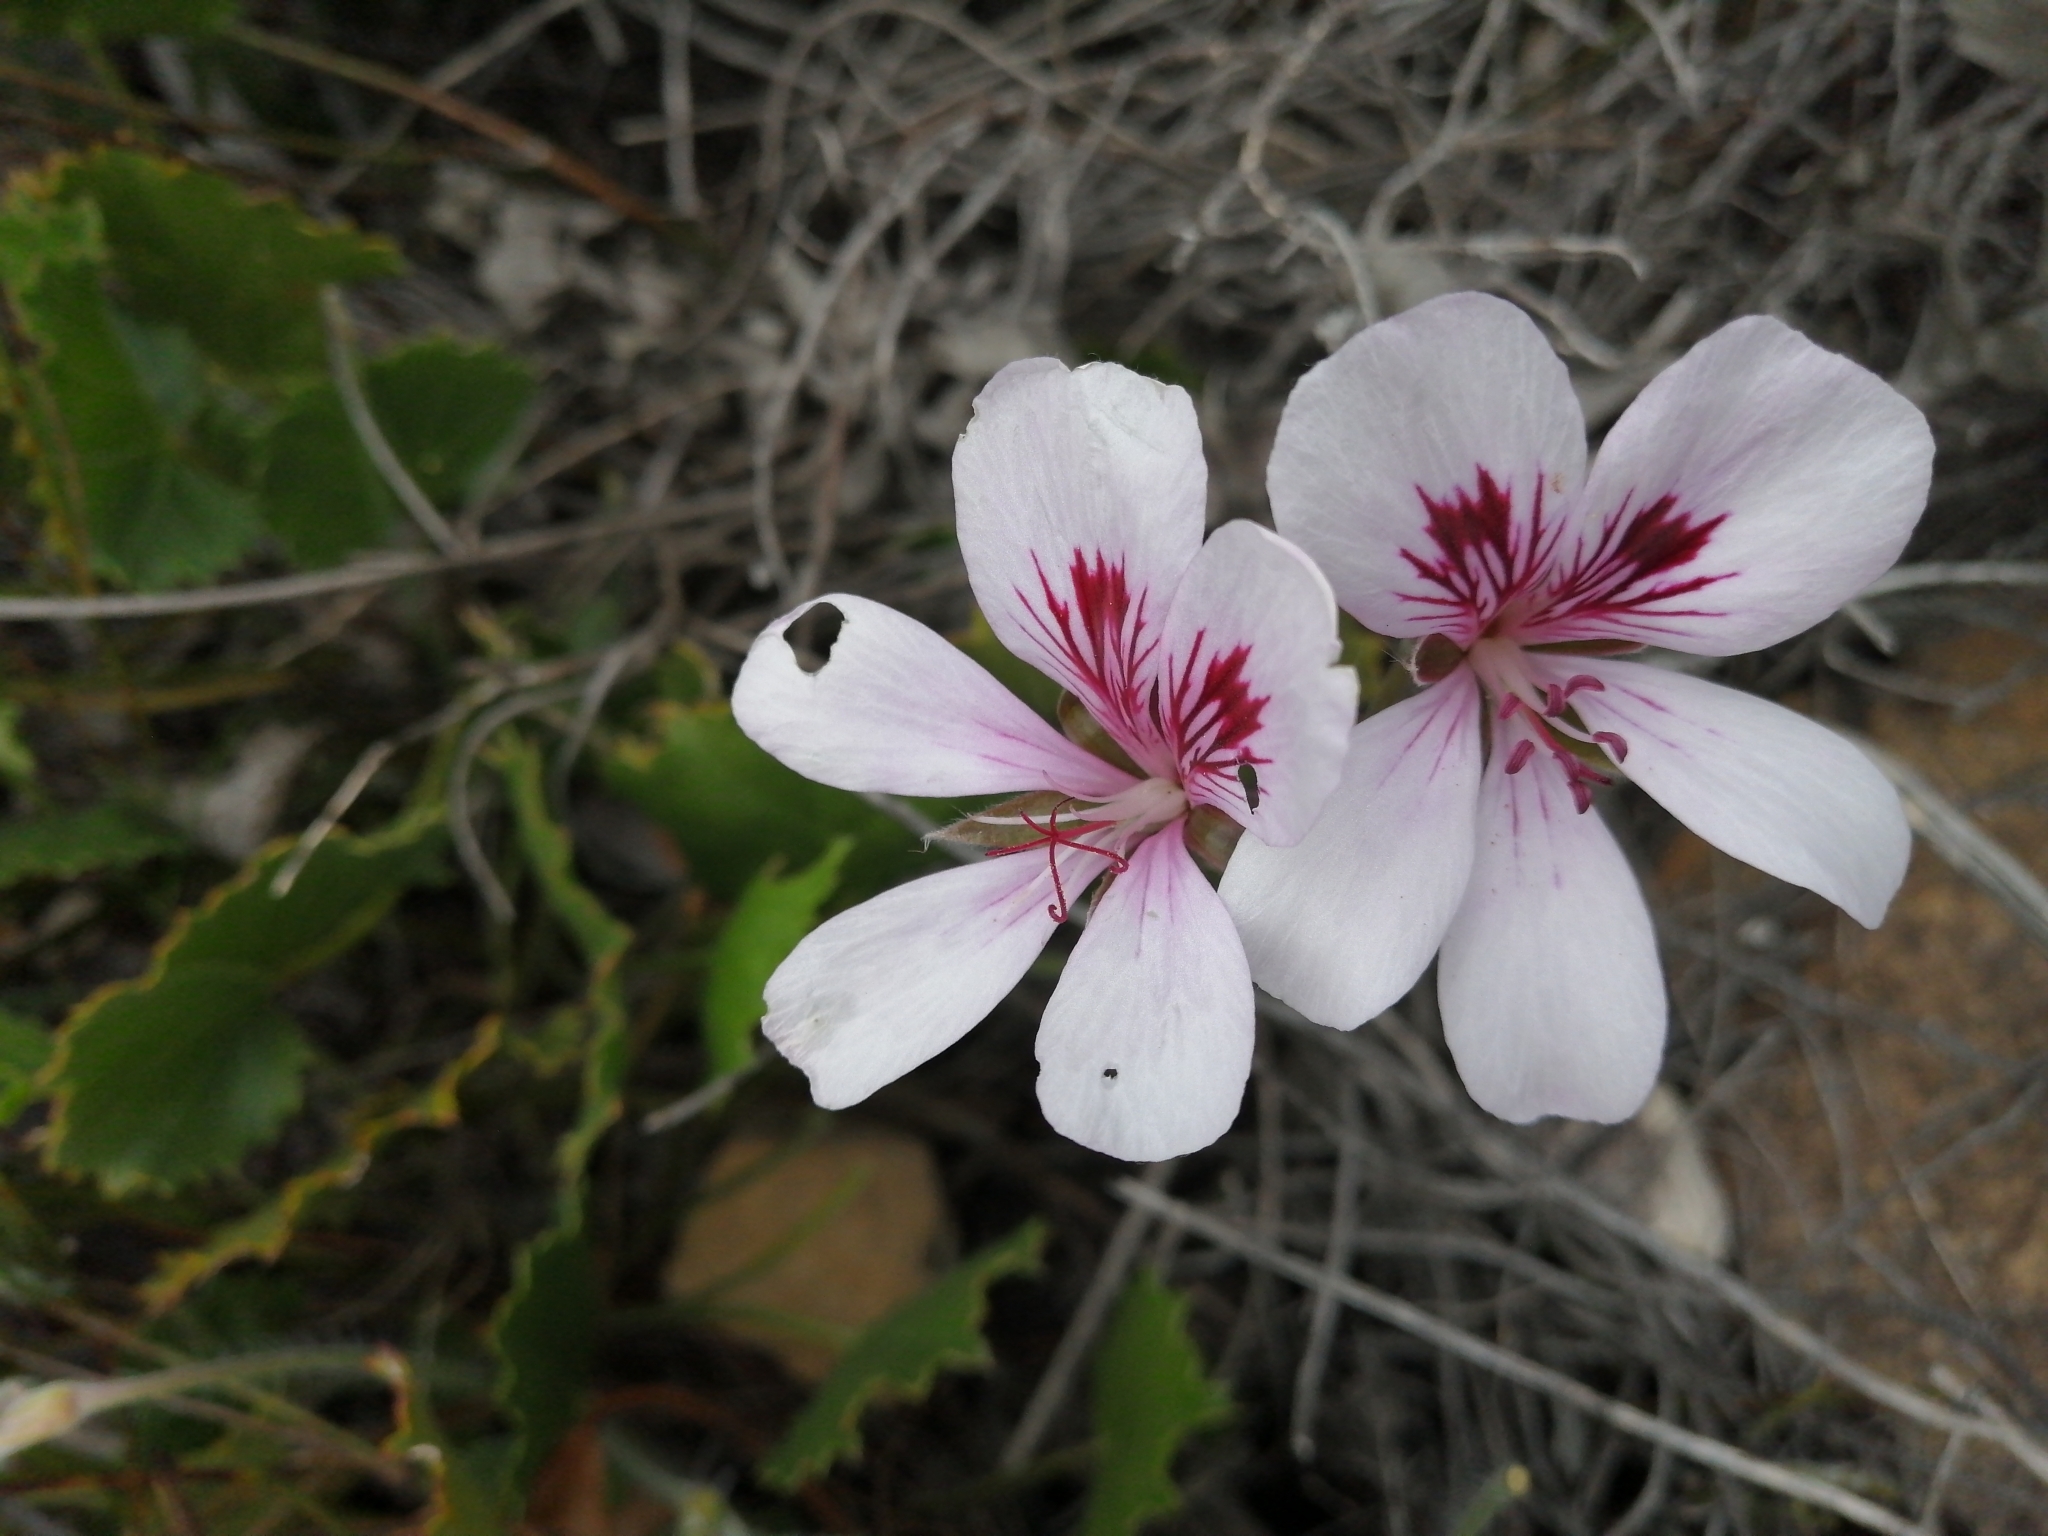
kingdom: Plantae
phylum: Tracheophyta
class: Magnoliopsida
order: Geraniales
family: Geraniaceae
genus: Pelargonium
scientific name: Pelargonium betulinum
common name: Birch-leaf pelargonium
